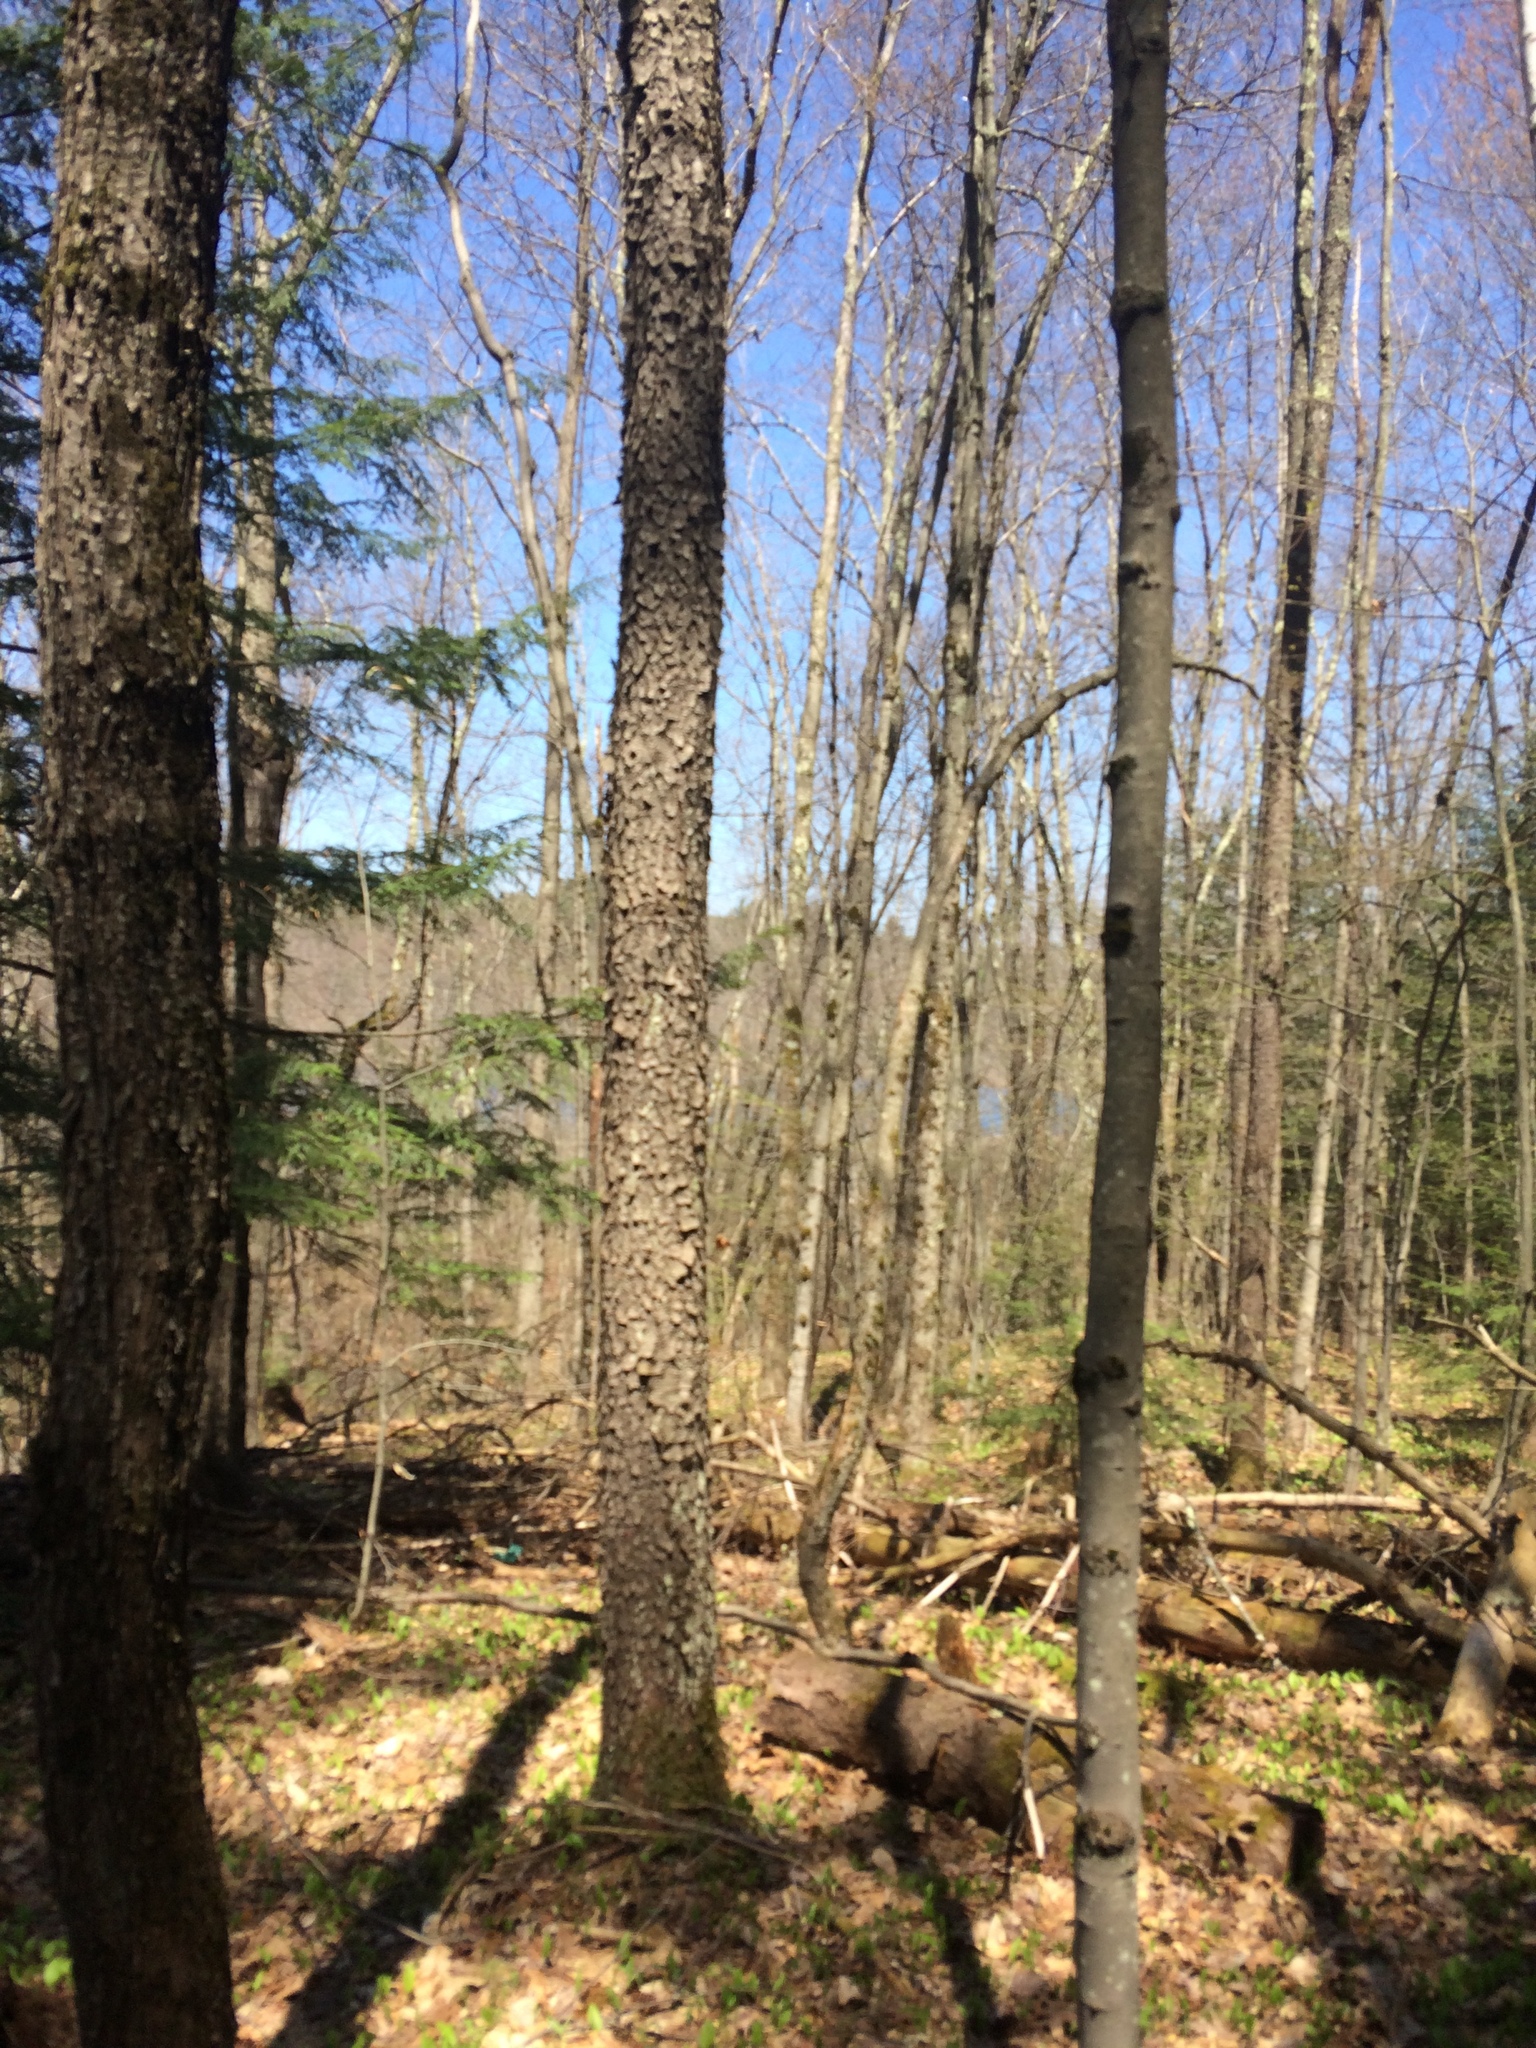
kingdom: Plantae
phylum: Tracheophyta
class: Magnoliopsida
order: Rosales
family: Rosaceae
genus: Prunus
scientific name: Prunus serotina
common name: Black cherry
